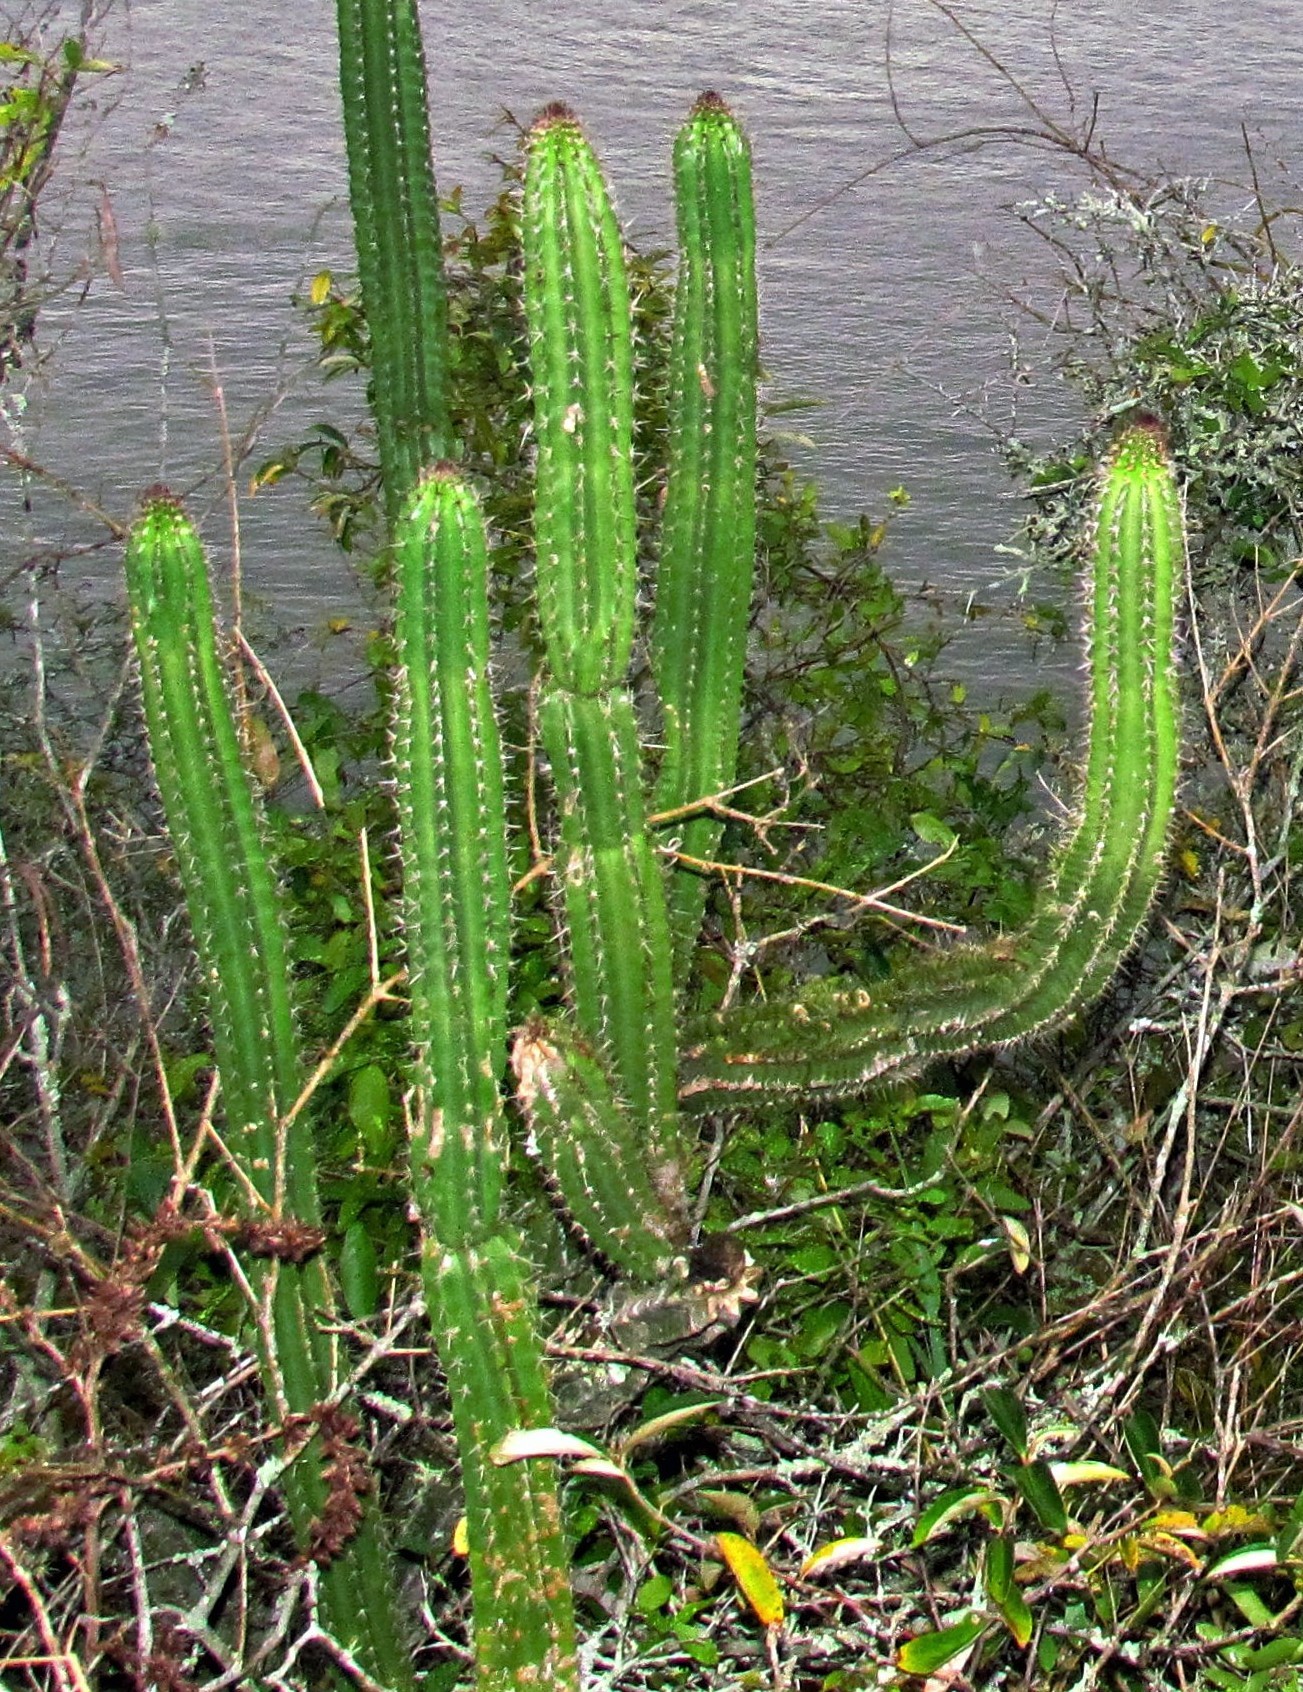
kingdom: Plantae
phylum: Tracheophyta
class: Magnoliopsida
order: Caryophyllales
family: Cactaceae
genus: Praecereus
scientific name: Praecereus euchlorus
